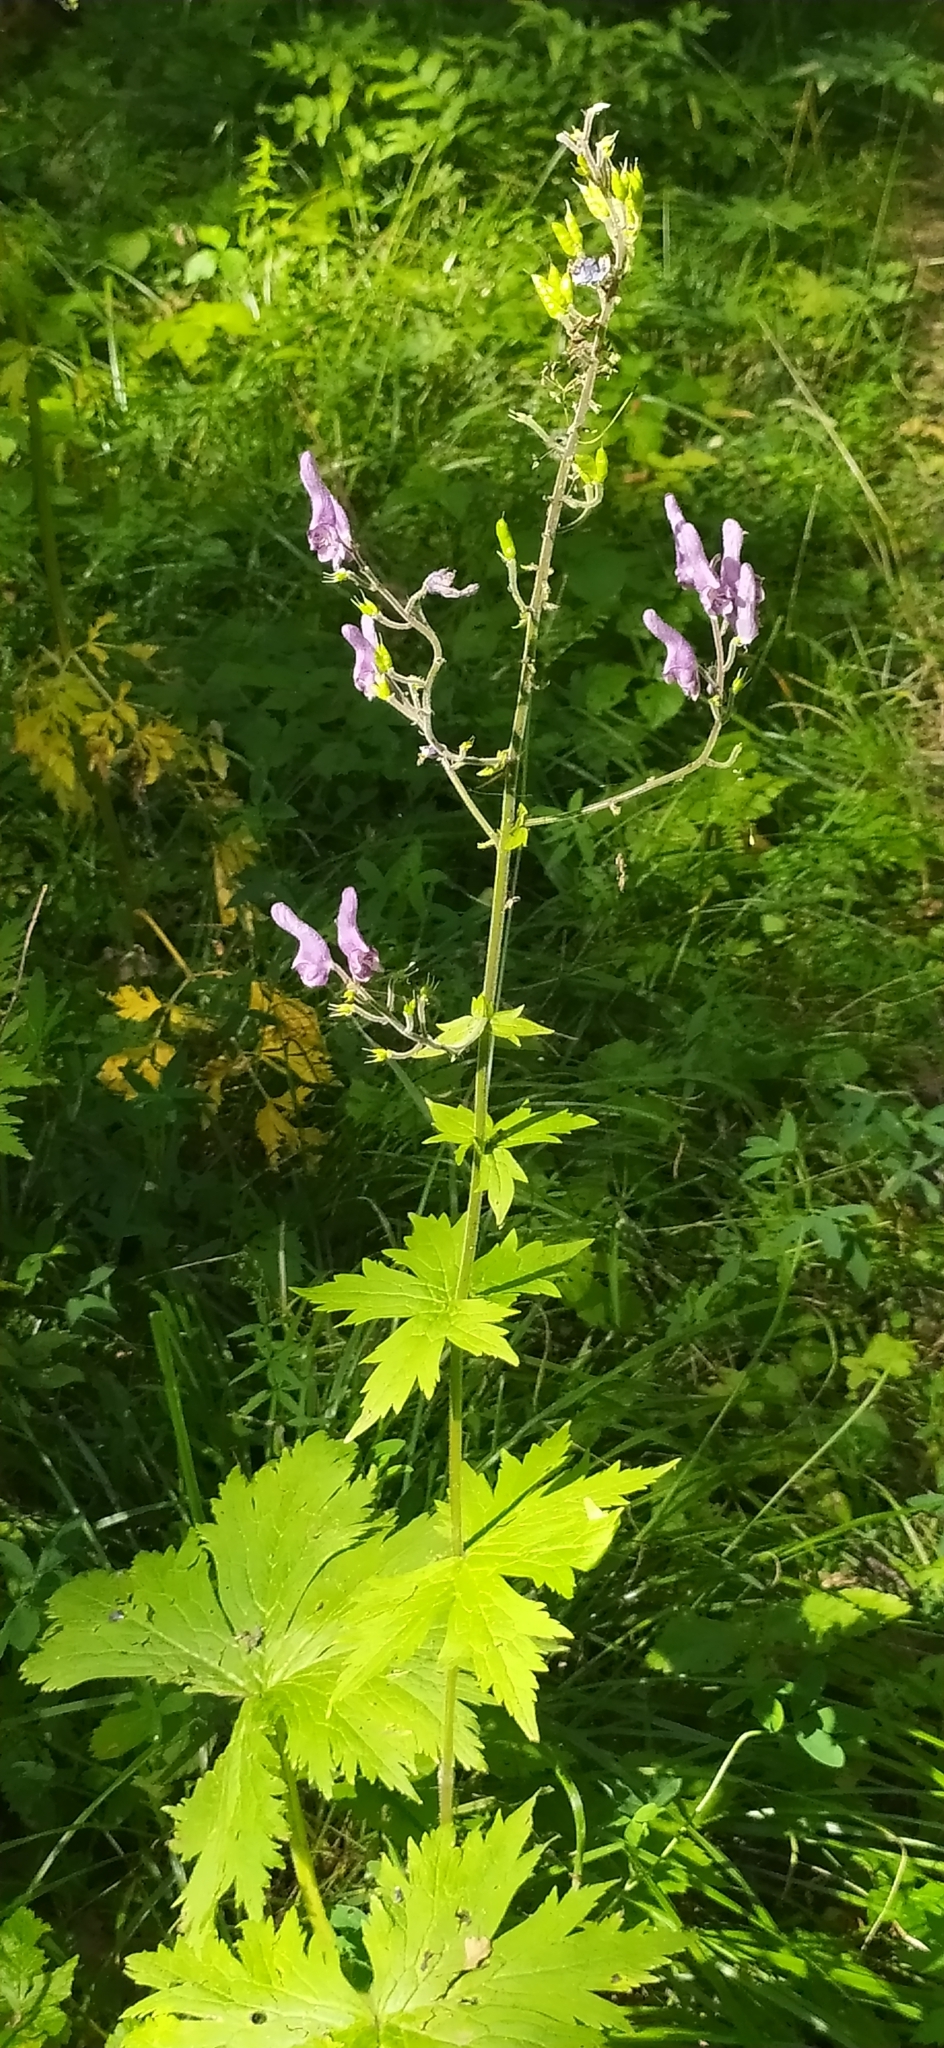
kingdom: Plantae
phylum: Tracheophyta
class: Magnoliopsida
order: Ranunculales
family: Ranunculaceae
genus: Aconitum
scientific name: Aconitum septentrionale
